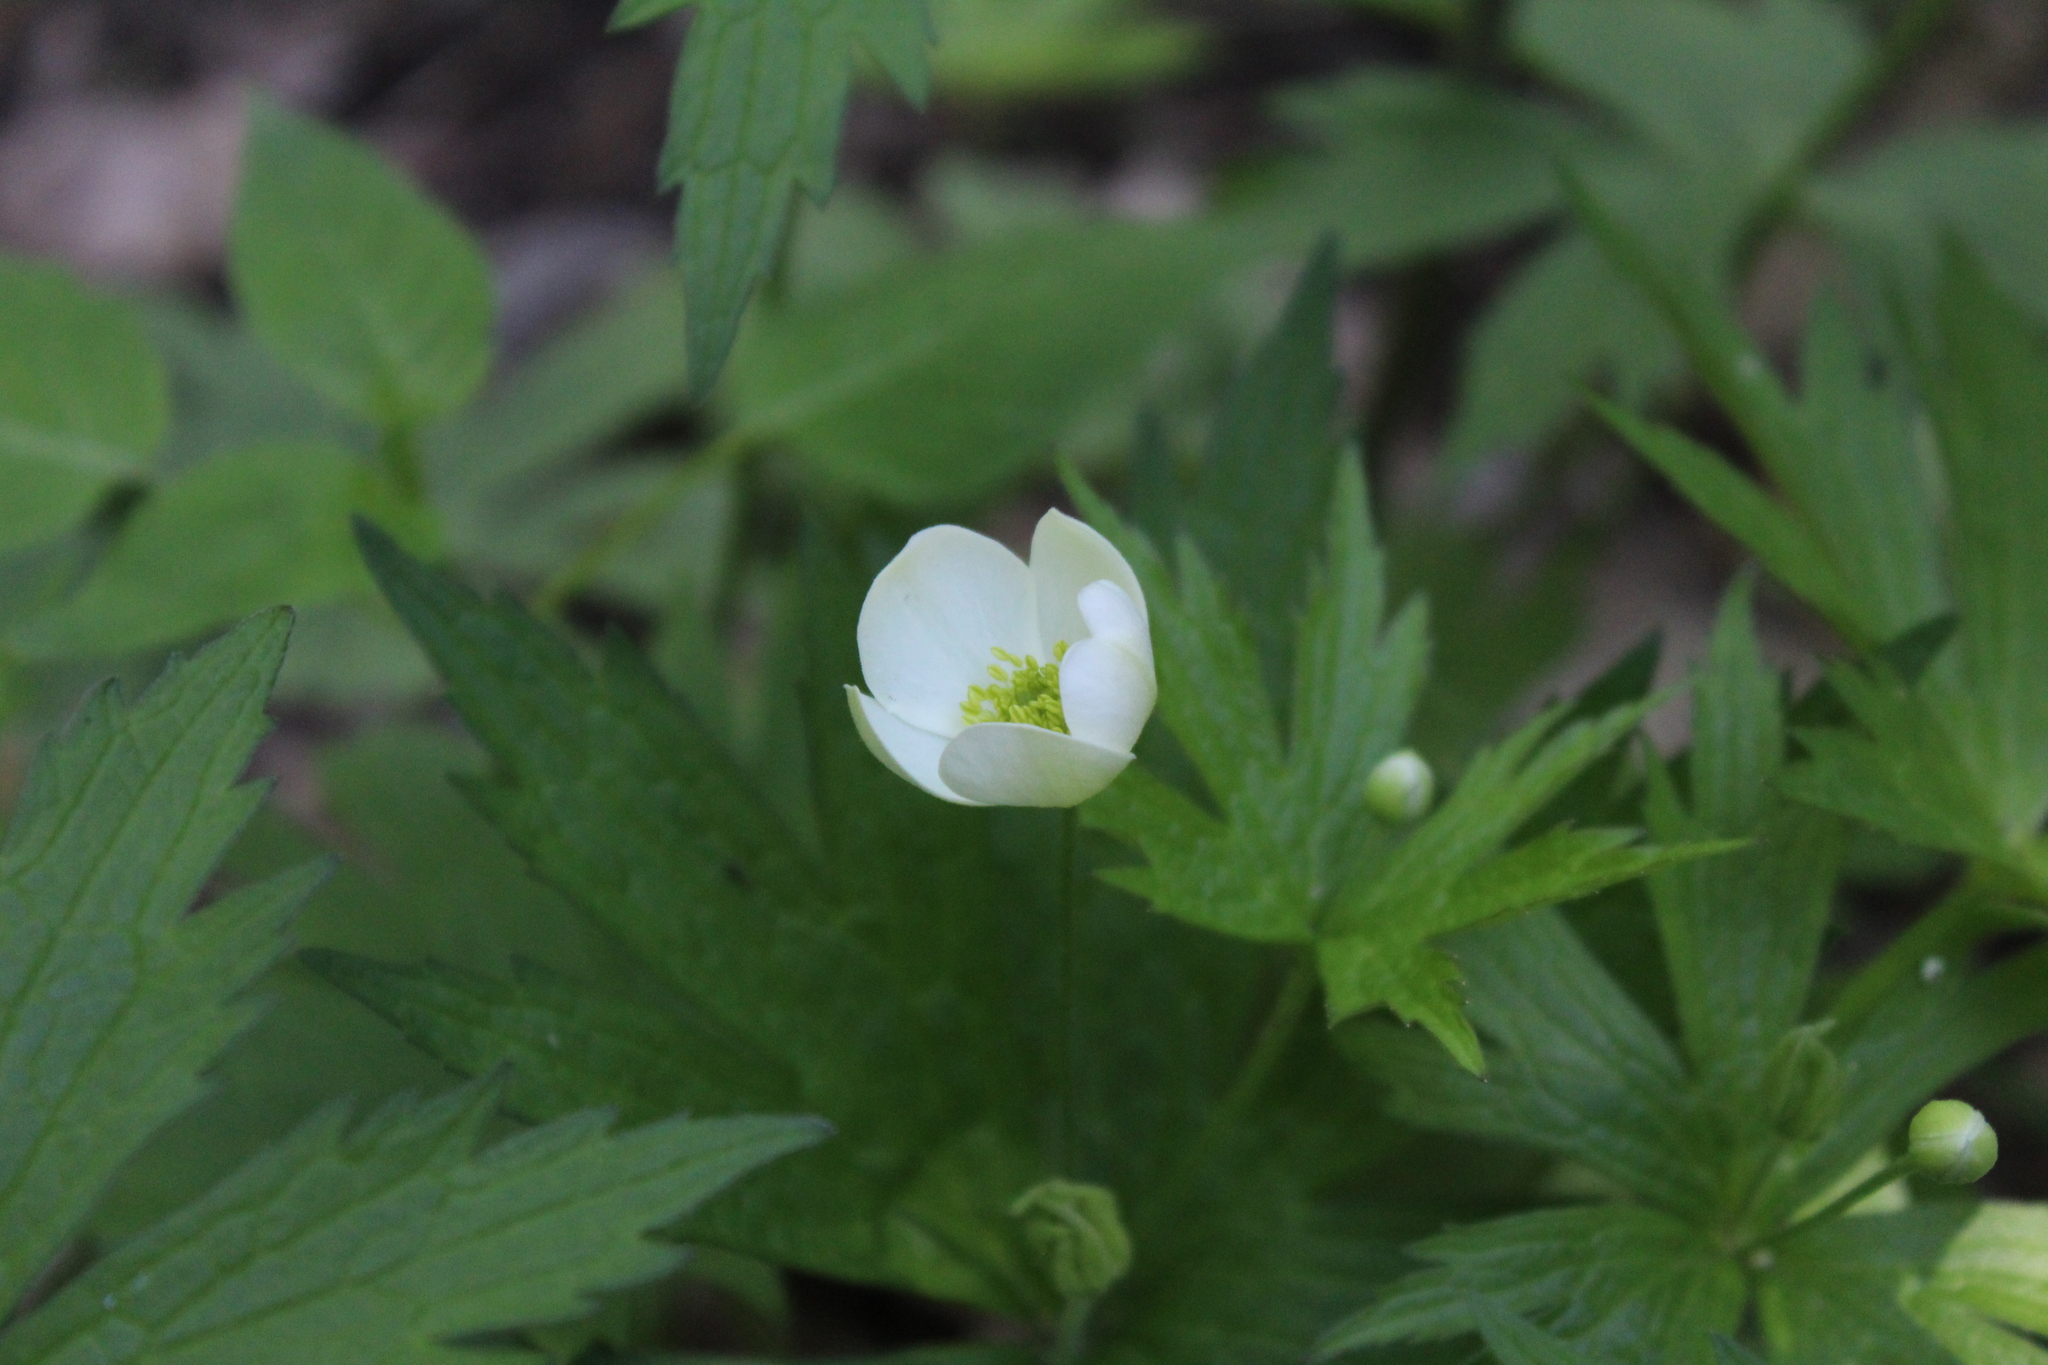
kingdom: Plantae
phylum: Tracheophyta
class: Magnoliopsida
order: Ranunculales
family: Ranunculaceae
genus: Anemonastrum
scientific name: Anemonastrum canadense
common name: Canada anemone
